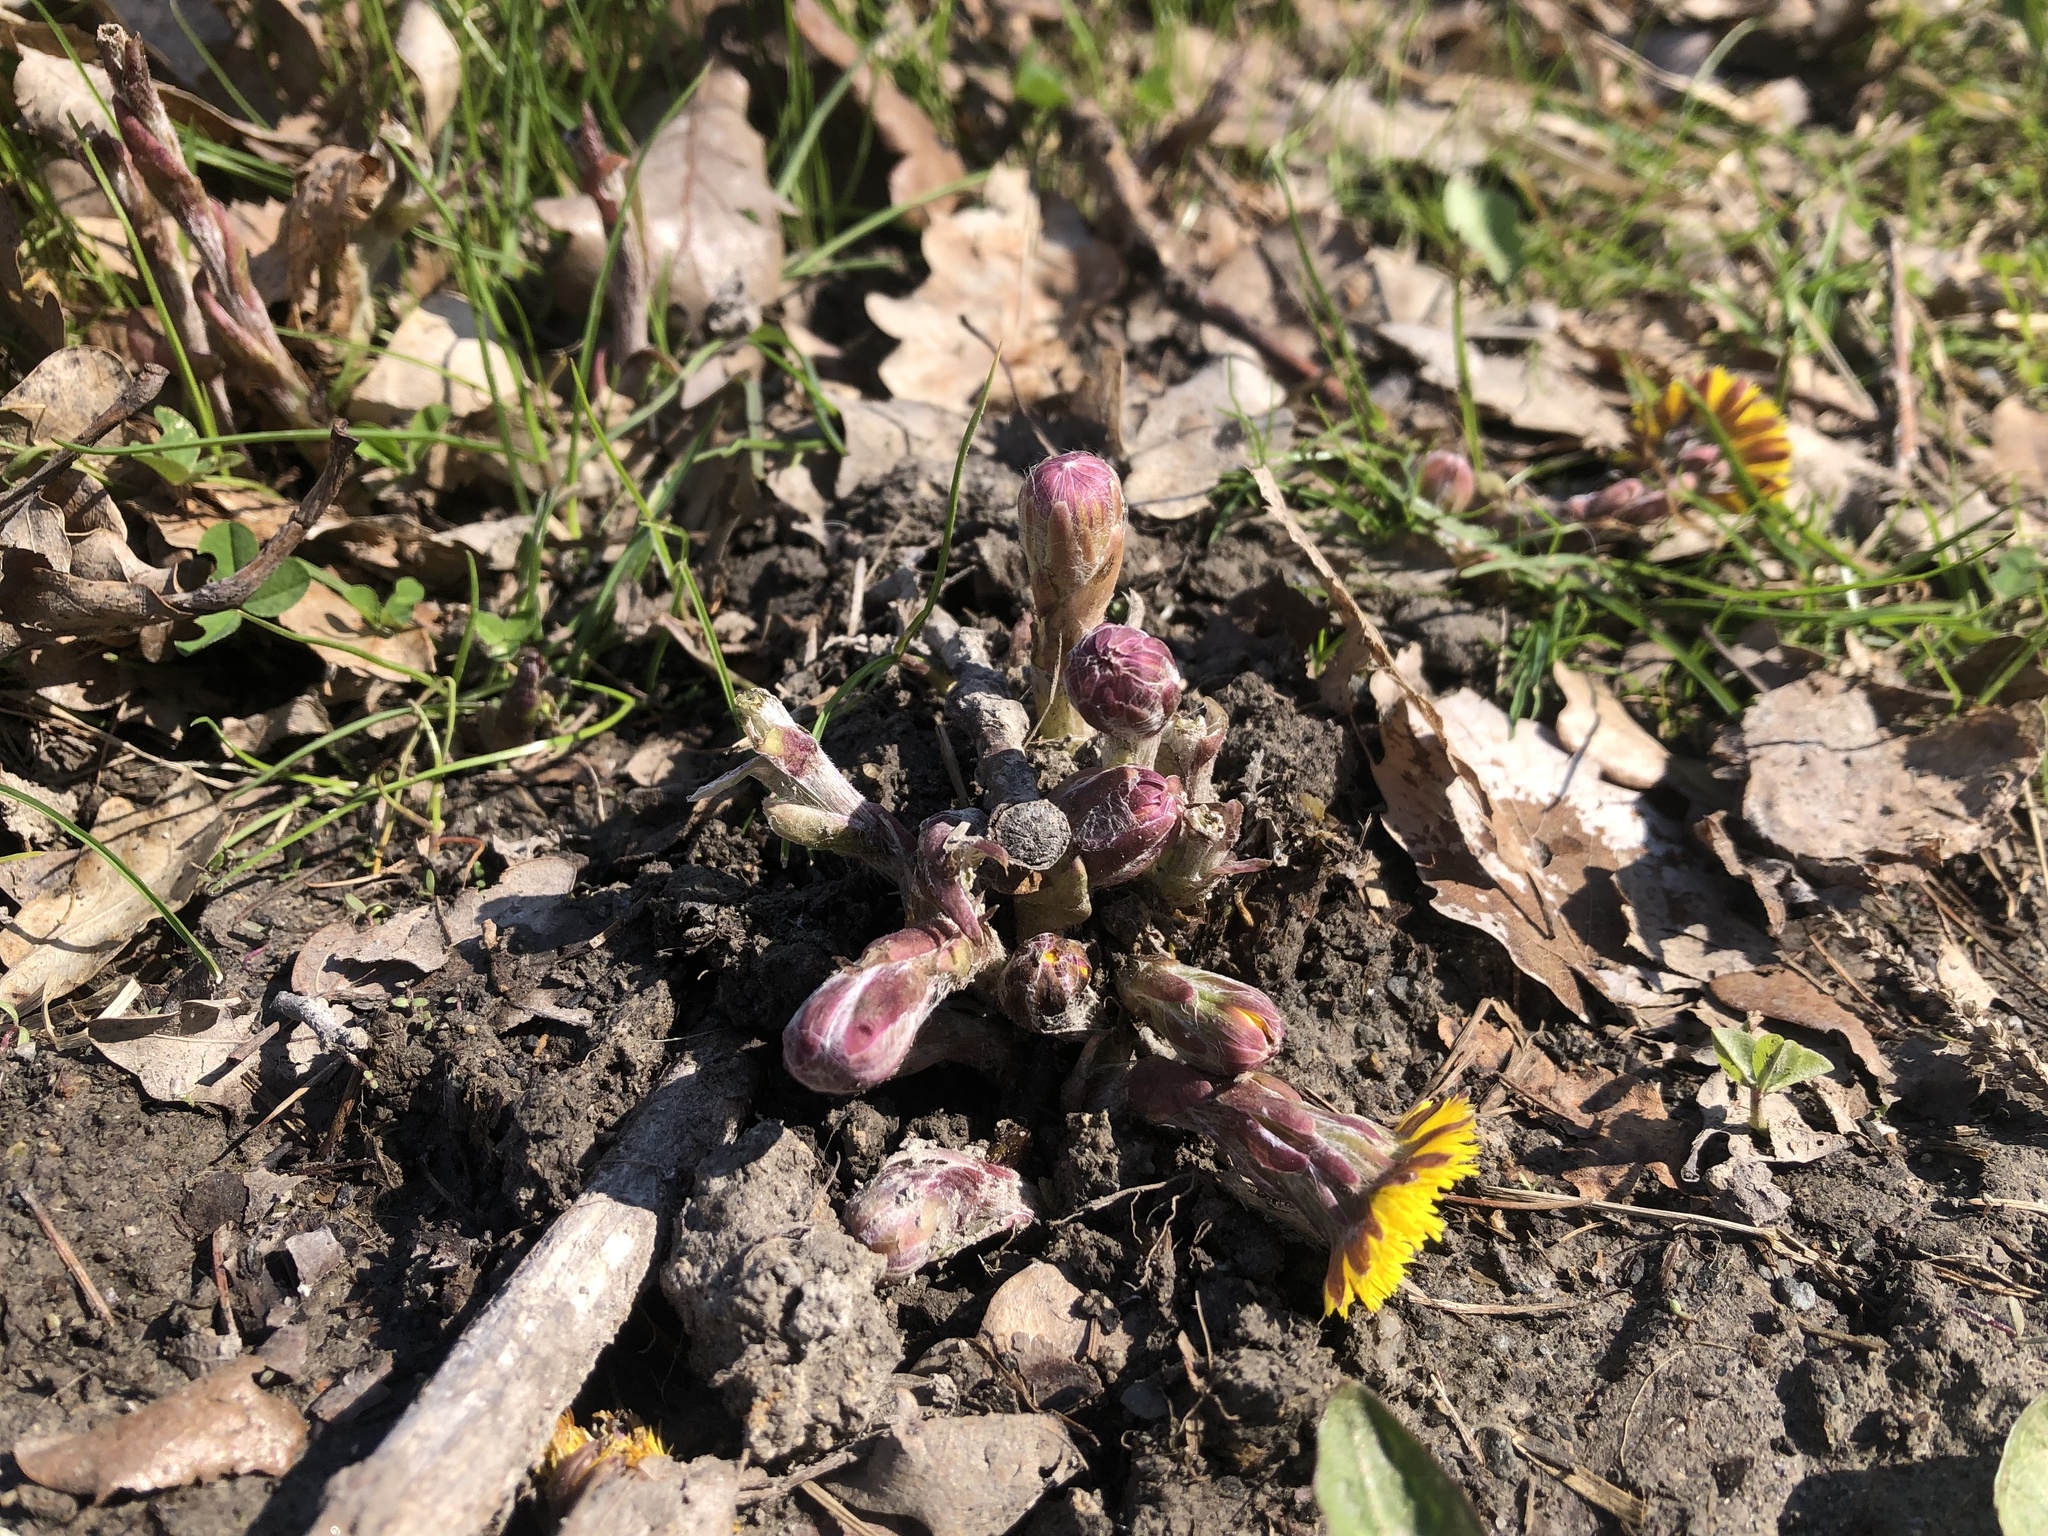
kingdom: Plantae
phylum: Tracheophyta
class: Magnoliopsida
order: Asterales
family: Asteraceae
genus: Tussilago
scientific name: Tussilago farfara
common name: Coltsfoot
